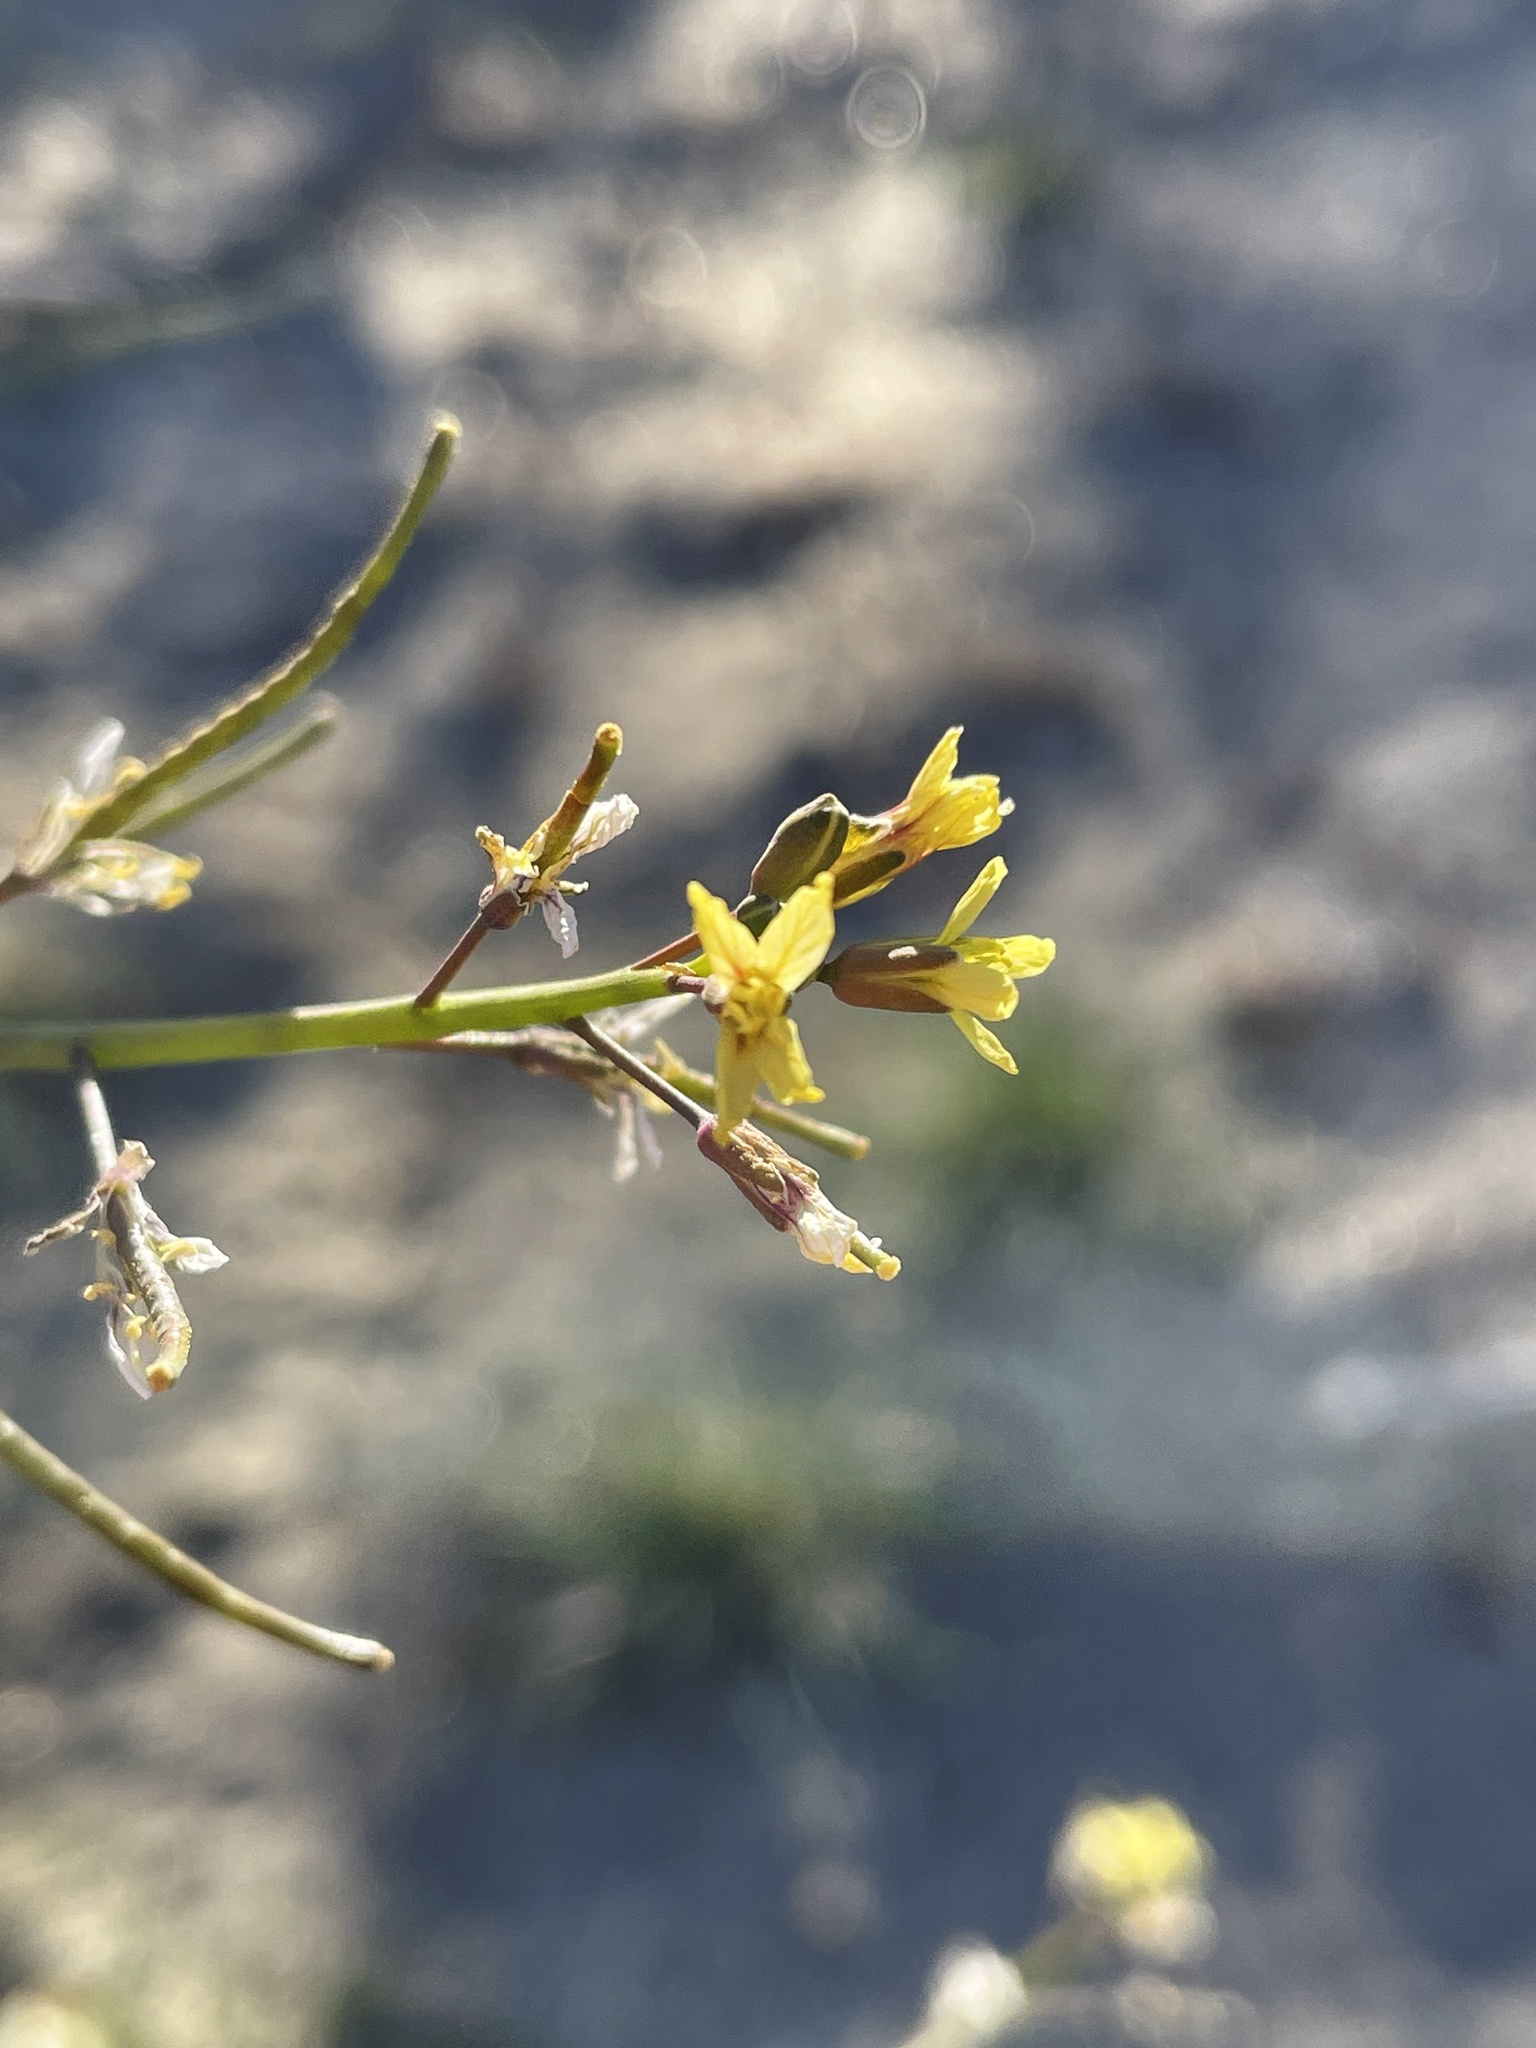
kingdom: Plantae
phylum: Tracheophyta
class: Magnoliopsida
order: Brassicales
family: Brassicaceae
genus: Brassica
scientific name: Brassica tournefortii
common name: Pale cabbage
